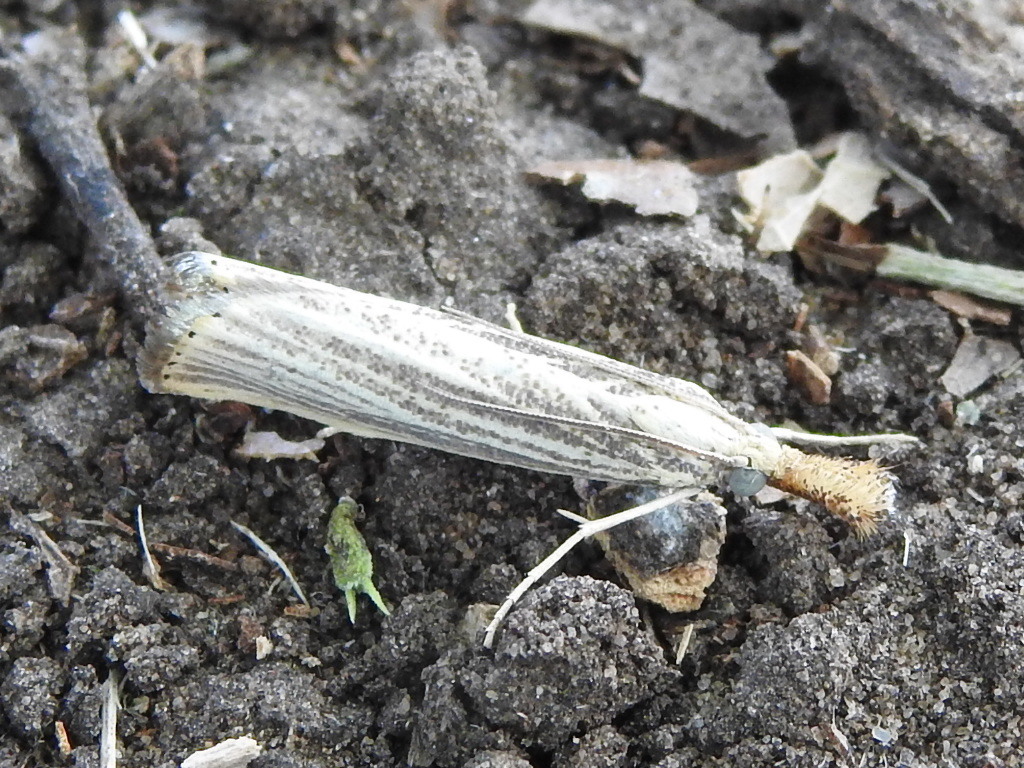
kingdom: Animalia
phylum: Arthropoda
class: Insecta
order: Lepidoptera
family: Crambidae
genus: Agriphila
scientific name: Agriphila vulgivagellus
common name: Vagabond crambus moth
